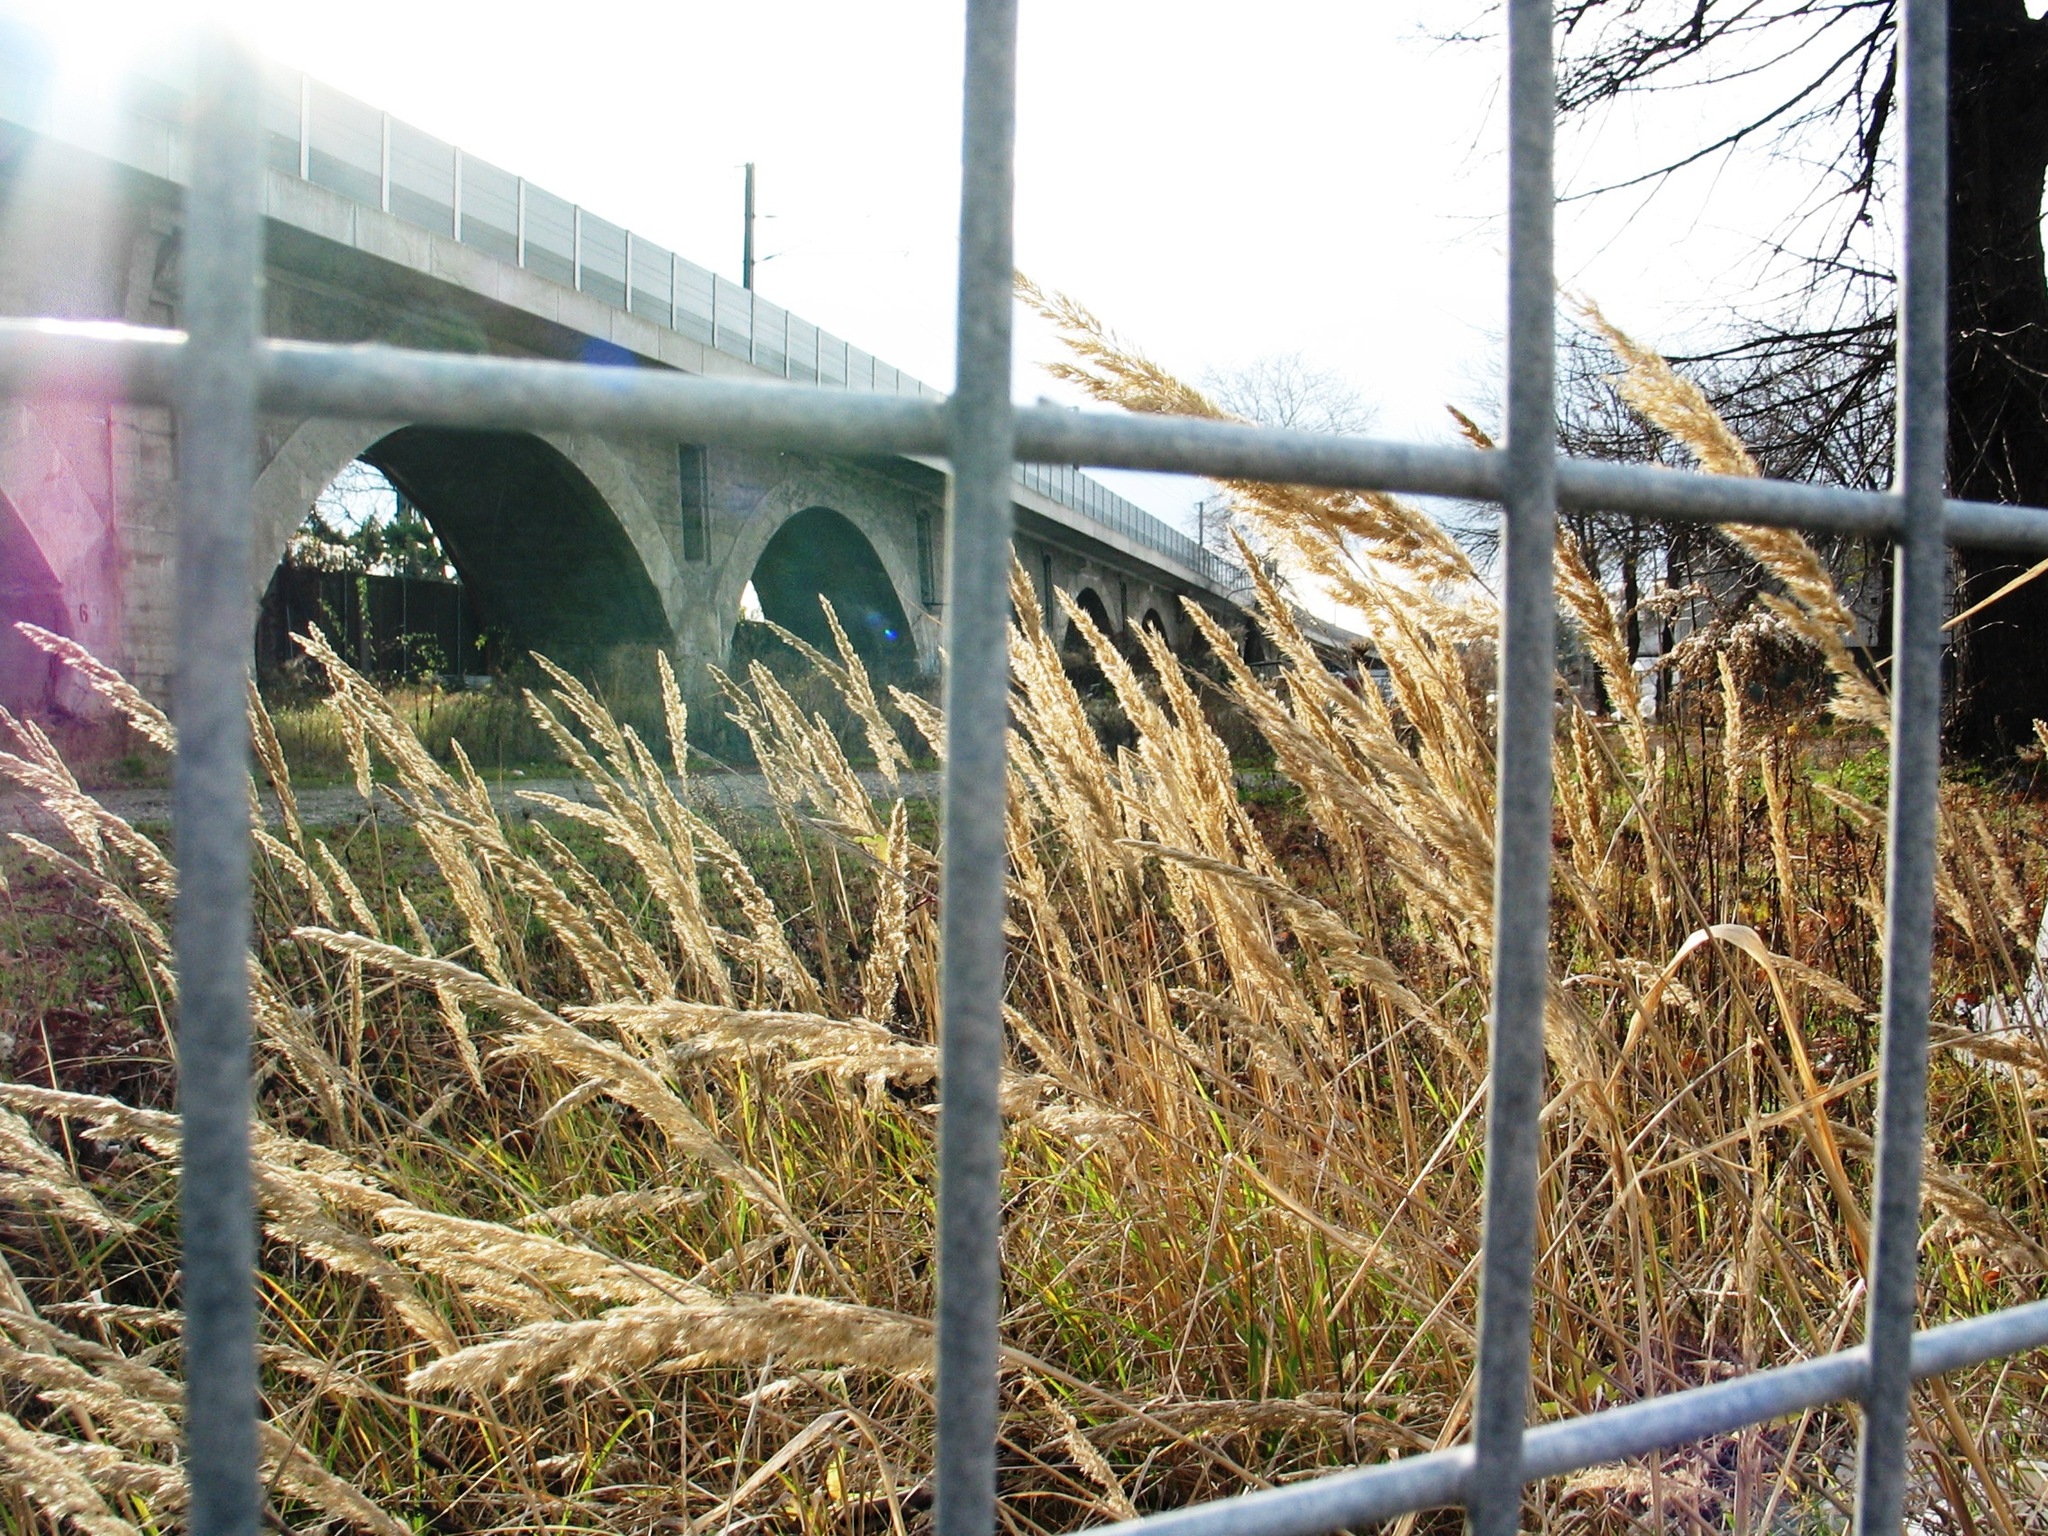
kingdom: Plantae
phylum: Tracheophyta
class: Liliopsida
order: Poales
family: Poaceae
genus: Calamagrostis
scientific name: Calamagrostis epigejos
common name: Wood small-reed
